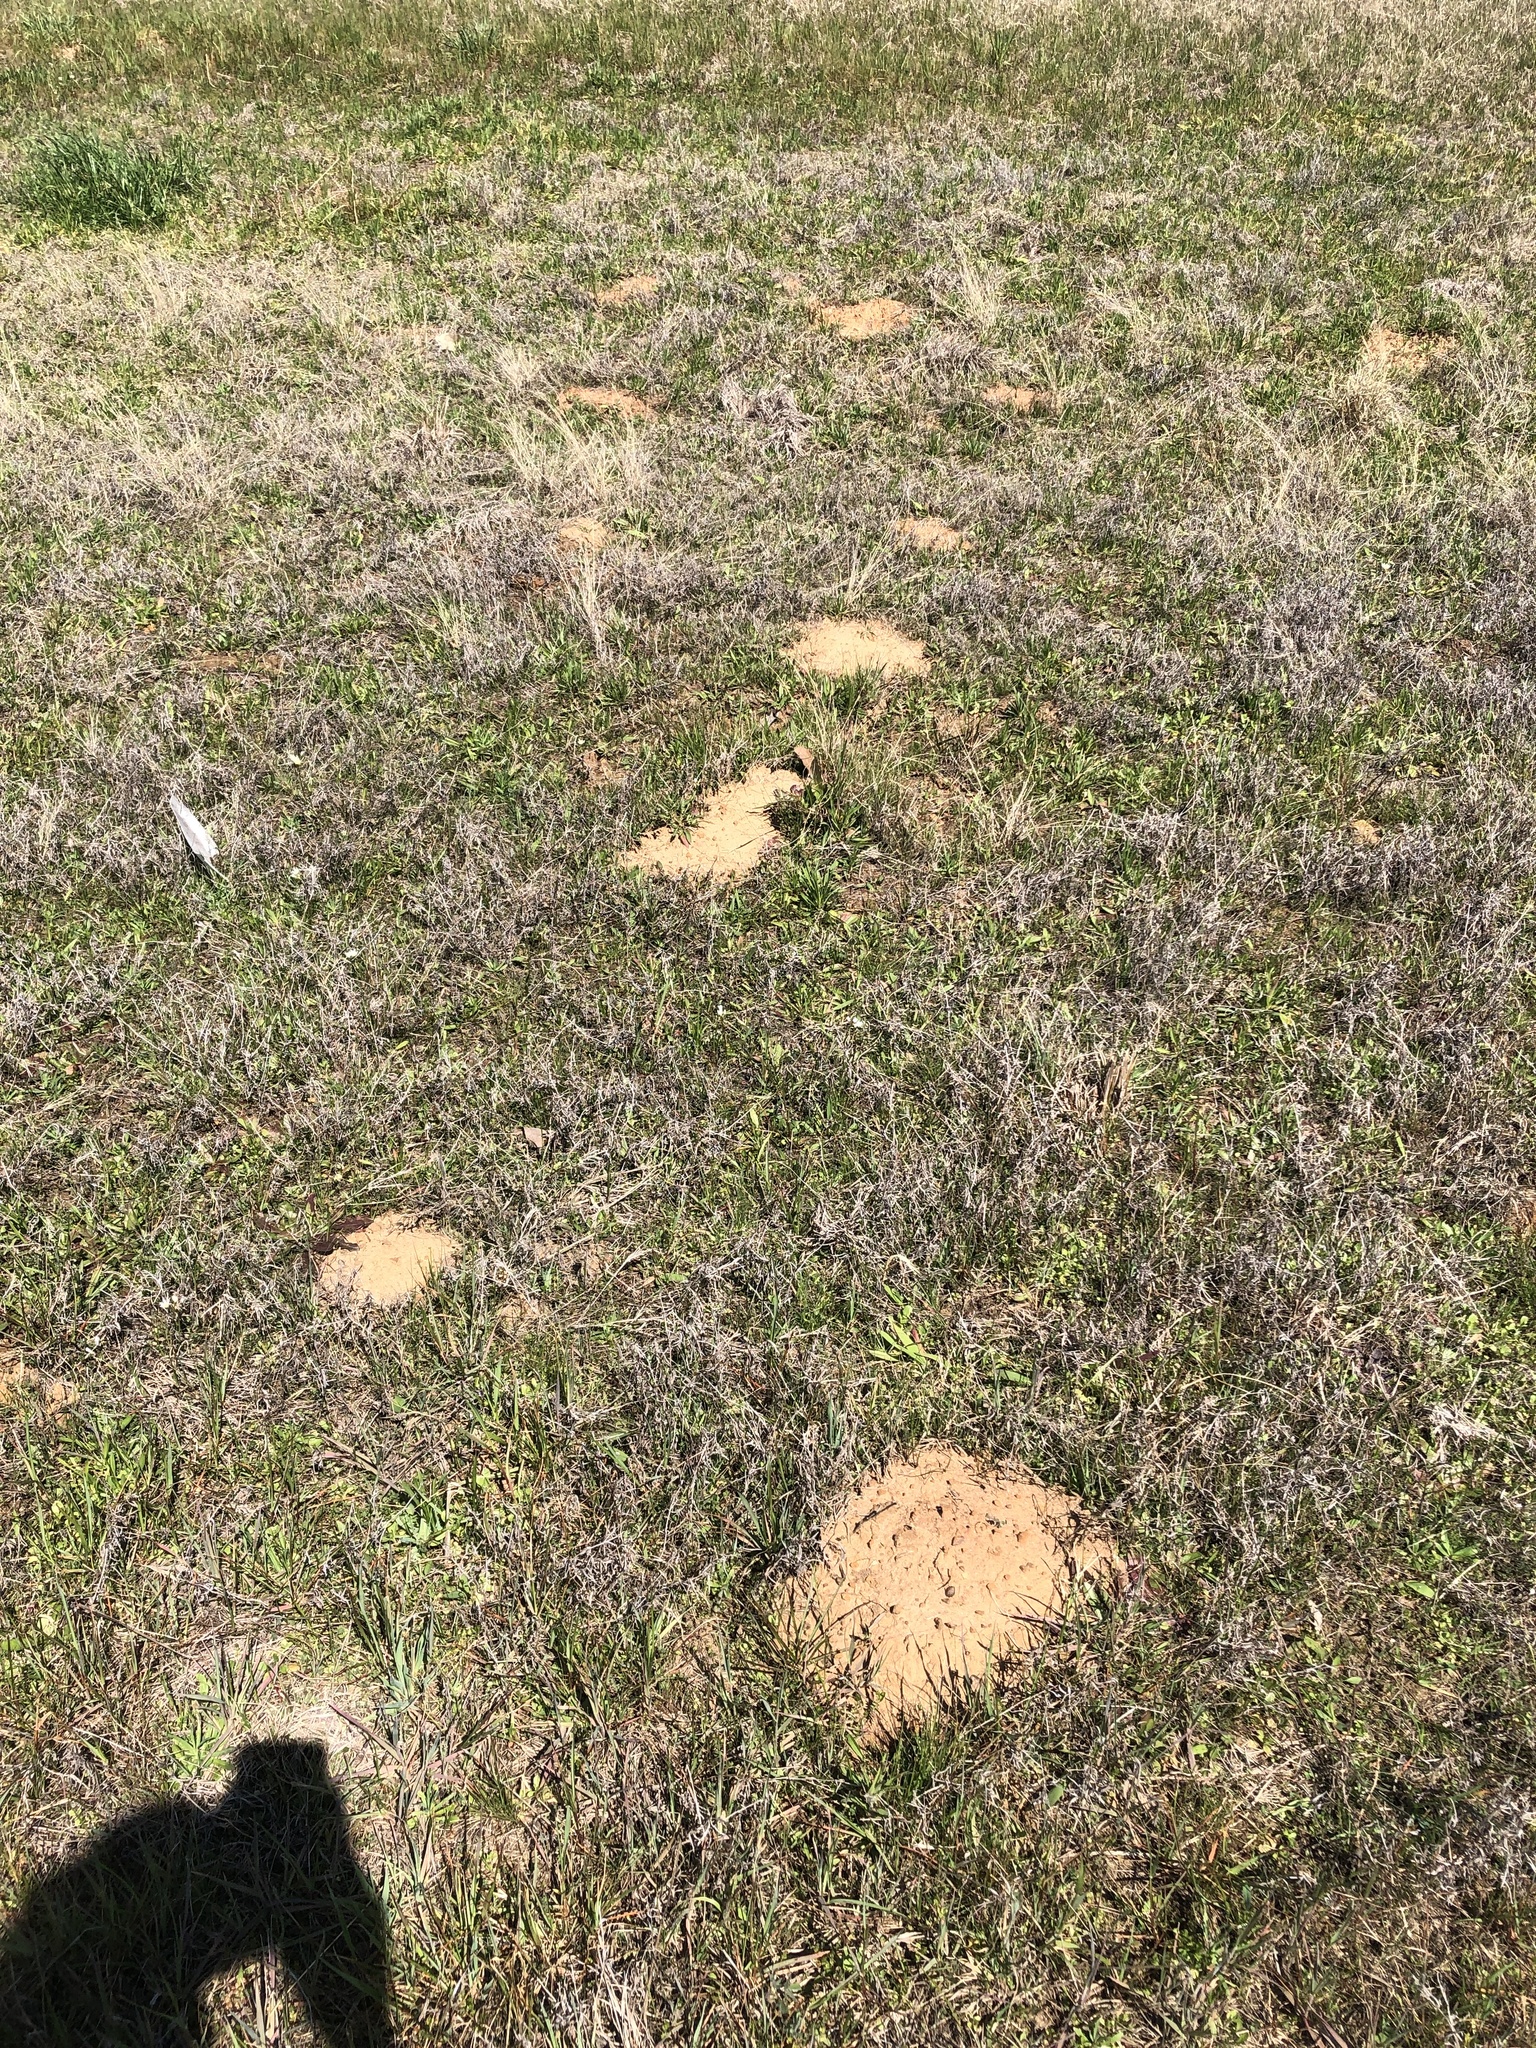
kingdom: Animalia
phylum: Chordata
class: Mammalia
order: Rodentia
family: Geomyidae
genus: Geomys
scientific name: Geomys breviceps
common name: Baird's pocket gopher
